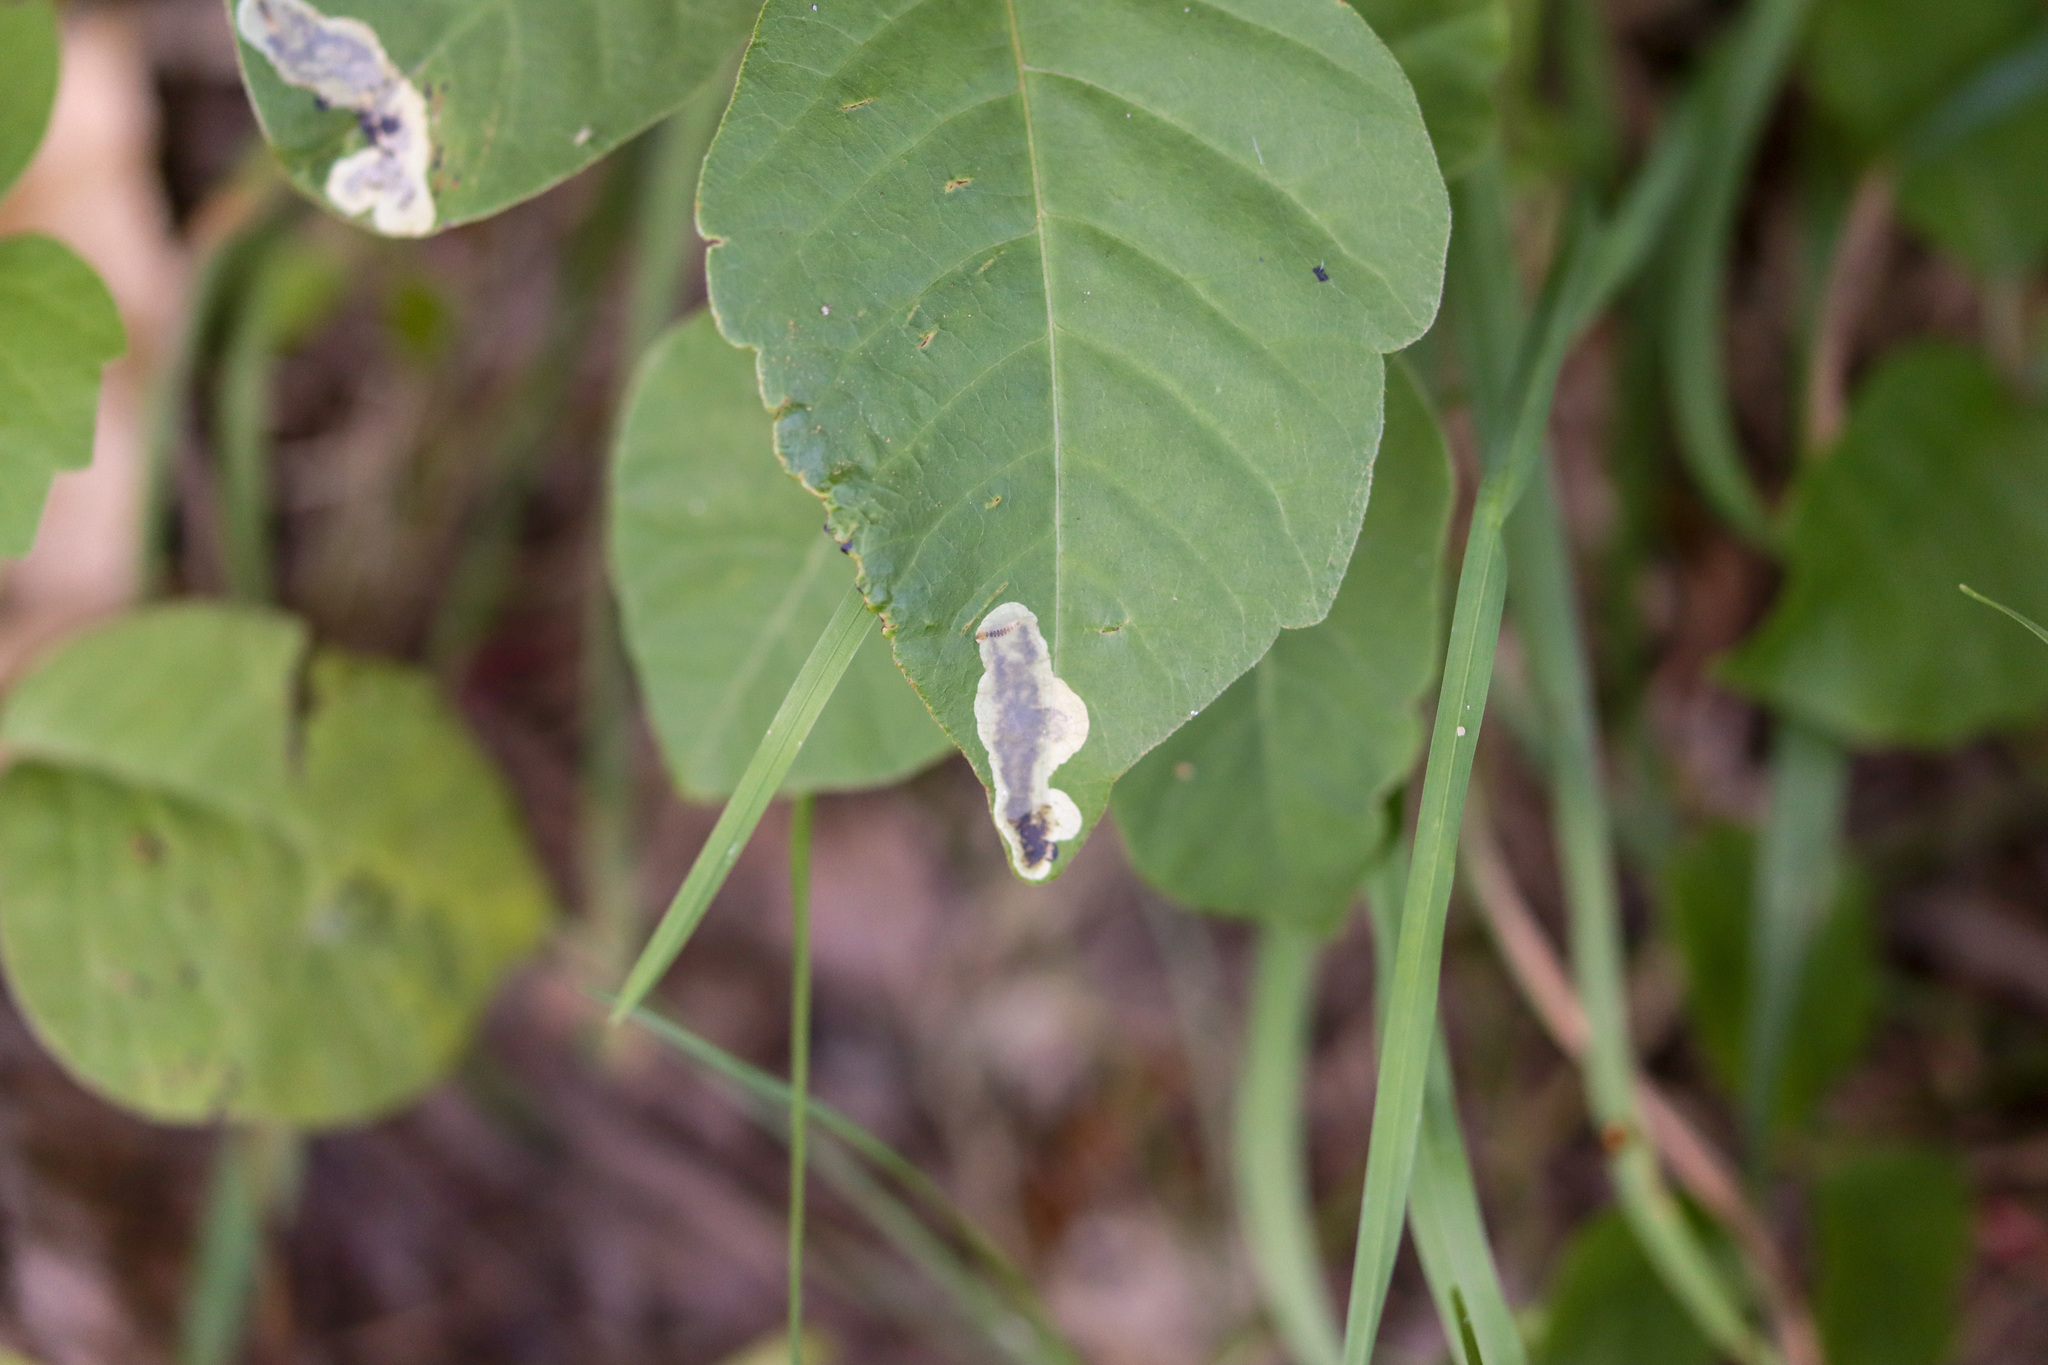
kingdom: Animalia
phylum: Arthropoda
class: Insecta
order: Lepidoptera
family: Gracillariidae
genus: Cameraria
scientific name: Cameraria guttifinitella
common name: Poison ivy leaf-miner moth
